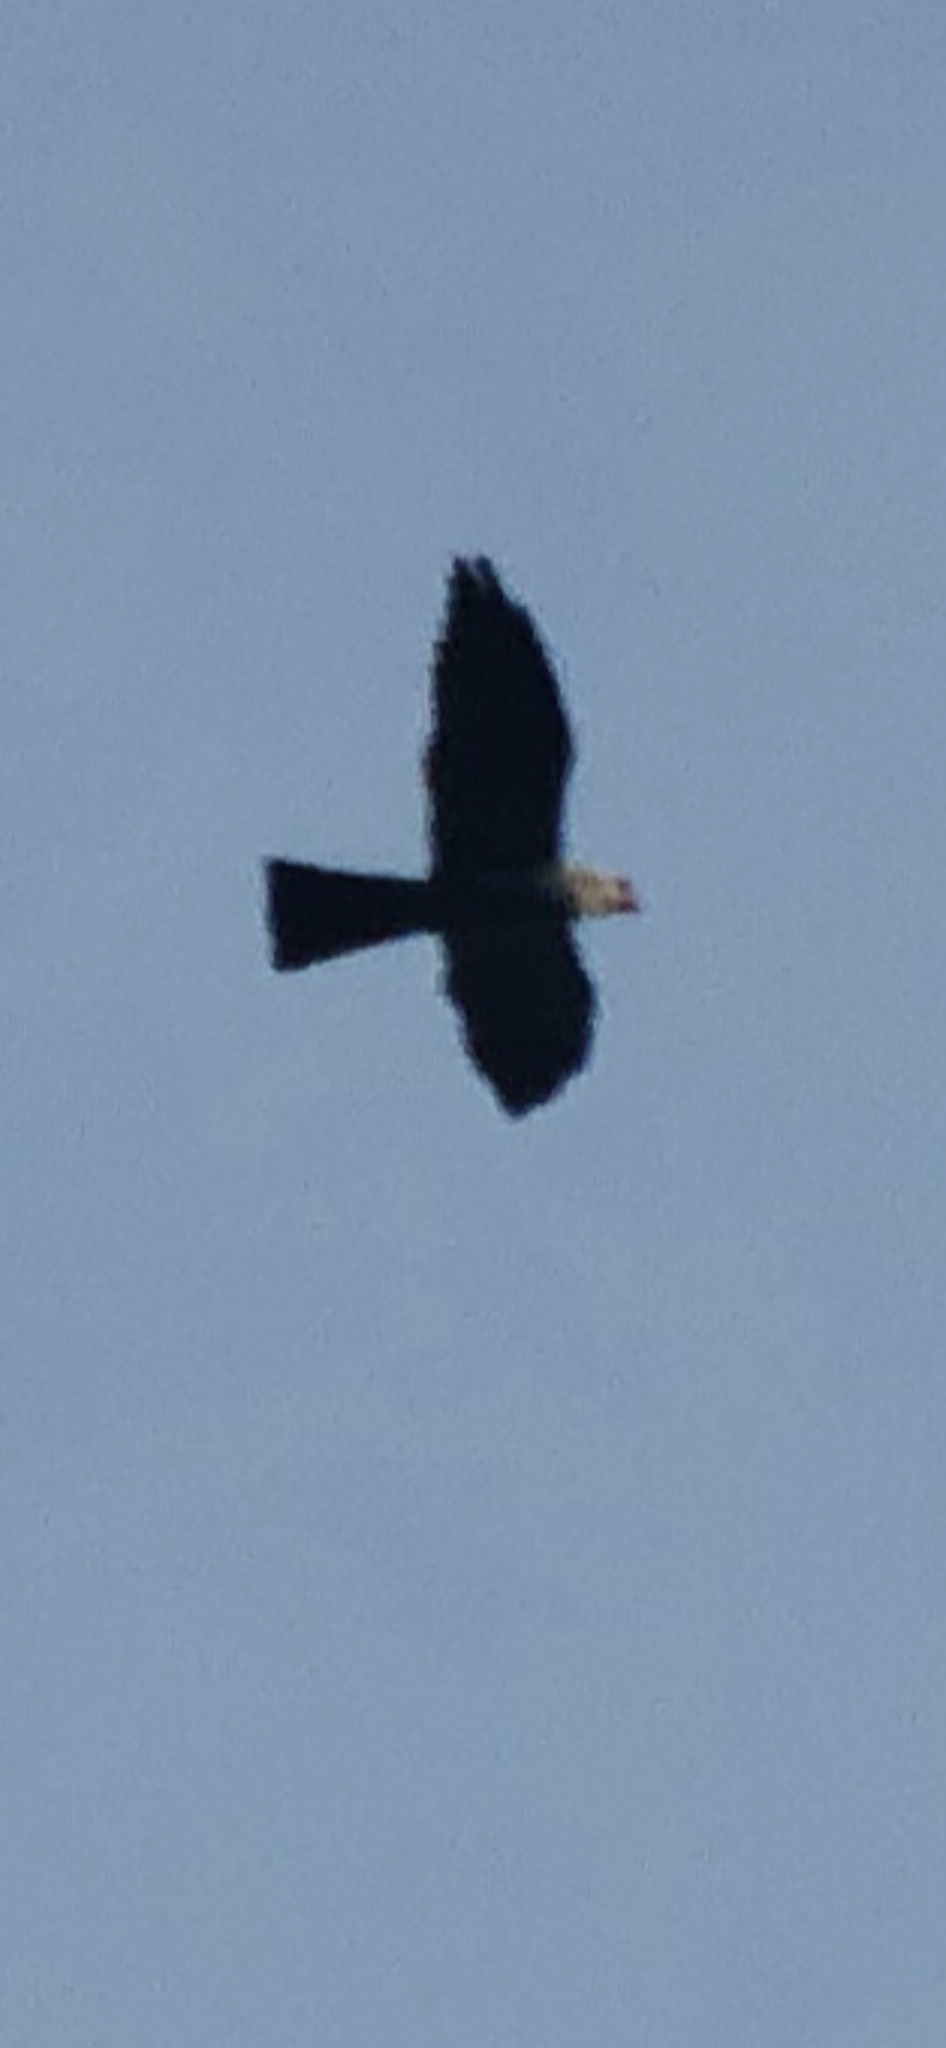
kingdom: Animalia
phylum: Chordata
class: Aves
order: Accipitriformes
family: Accipitridae
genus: Ictinia
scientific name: Ictinia mississippiensis
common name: Mississippi kite
